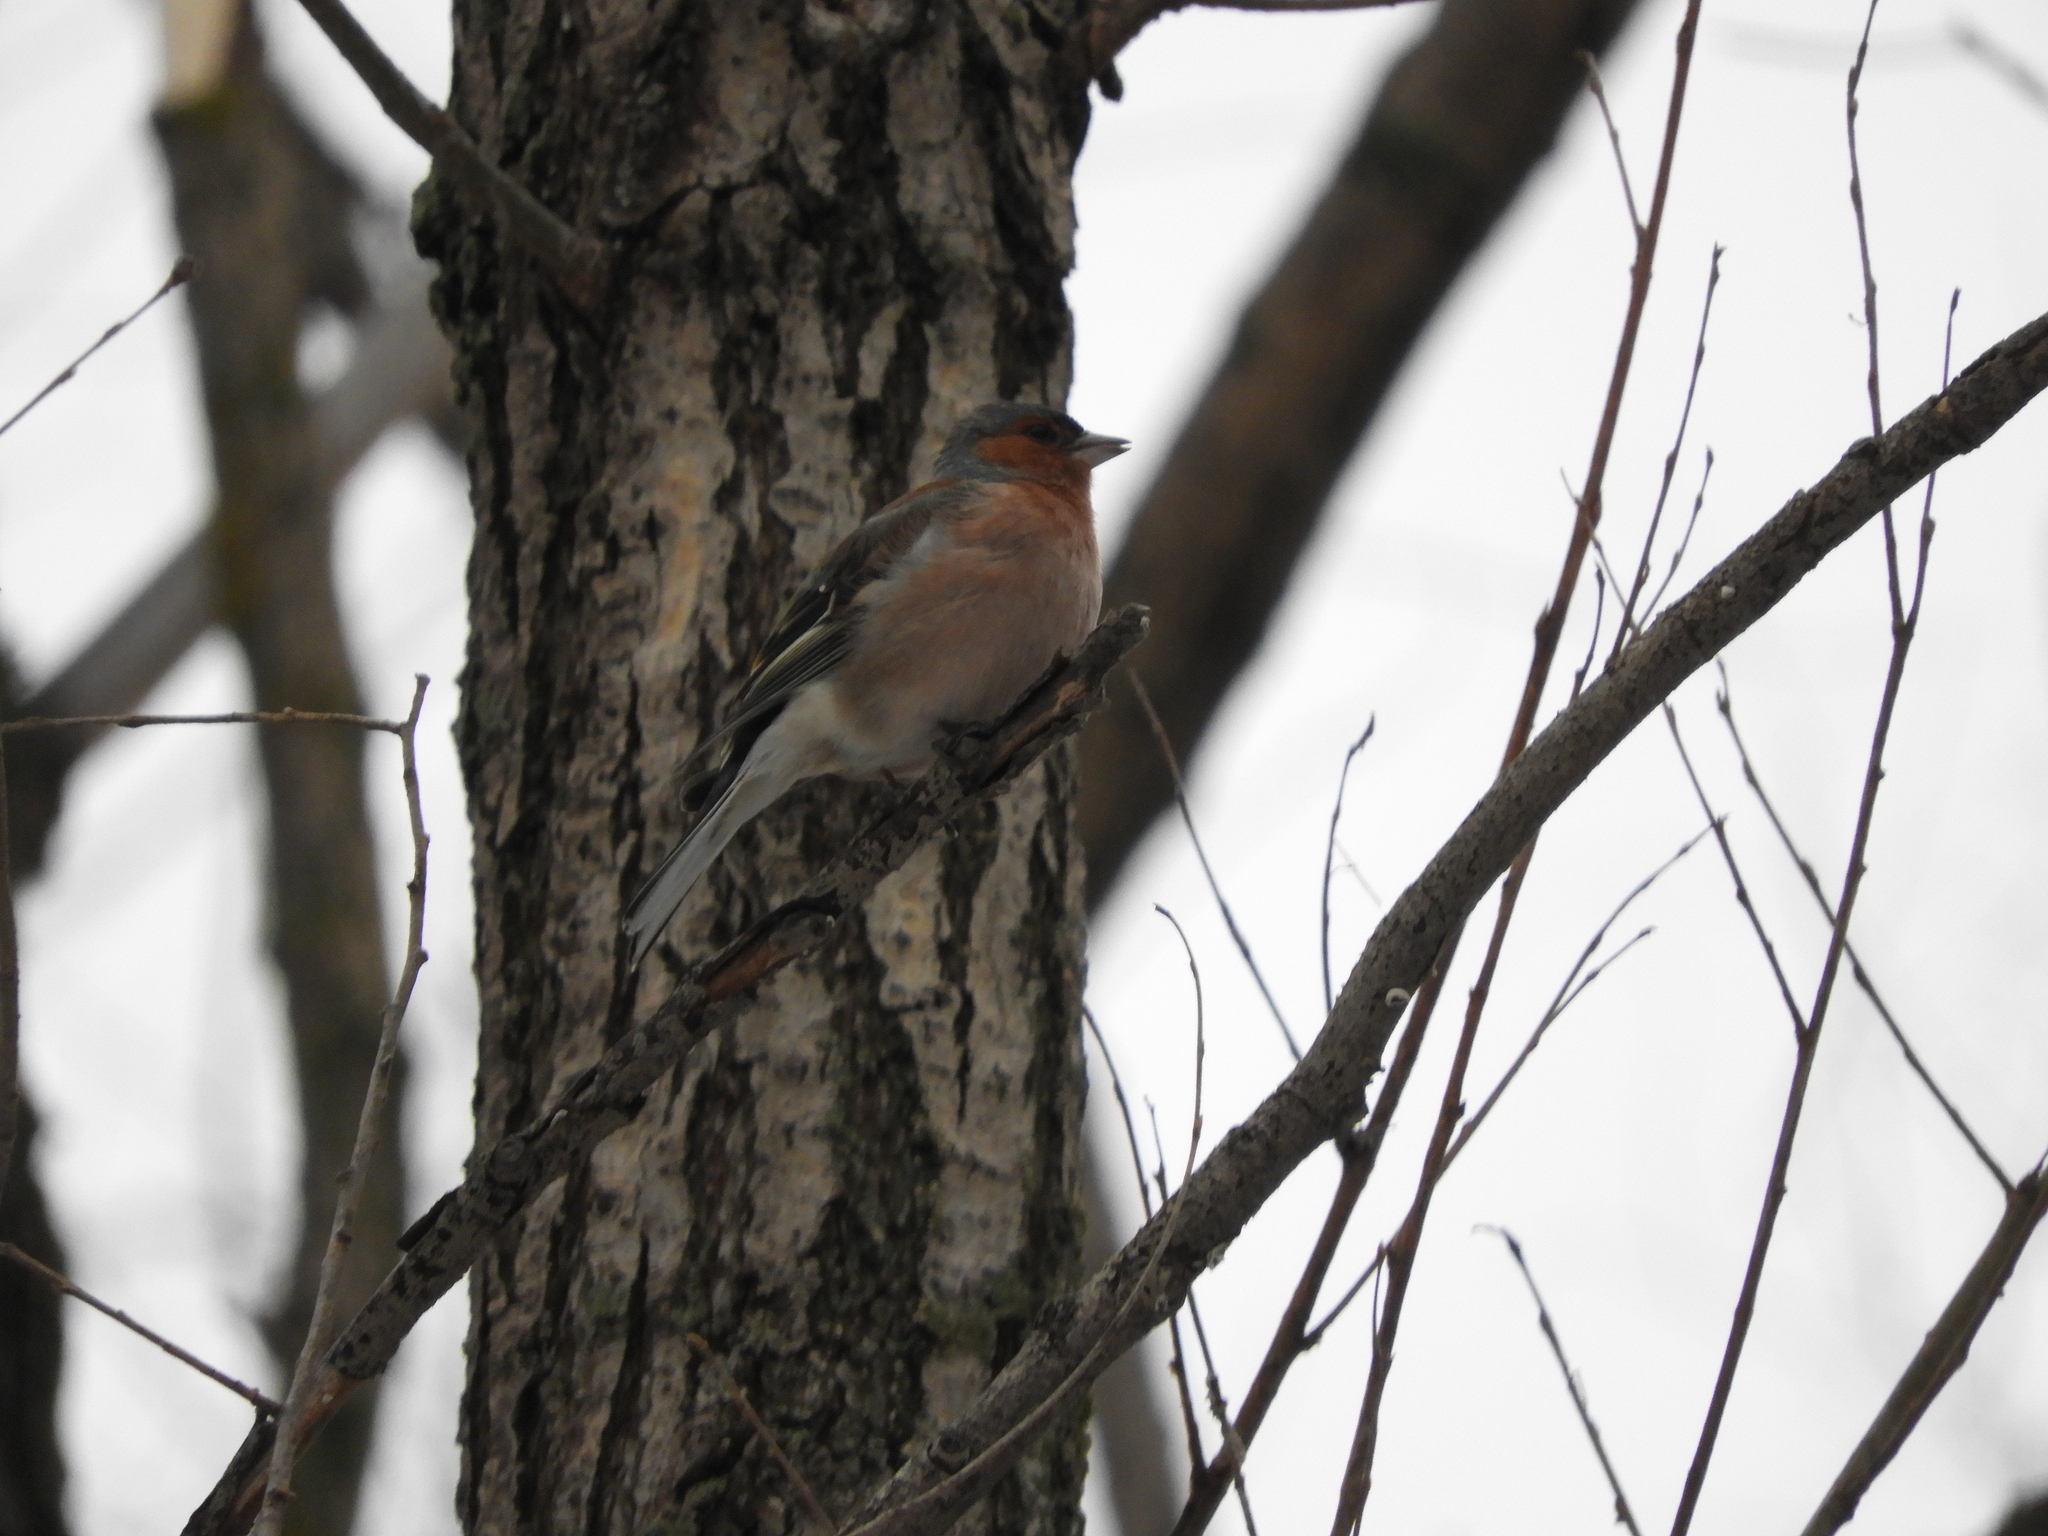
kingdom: Animalia
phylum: Chordata
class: Aves
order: Passeriformes
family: Fringillidae
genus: Fringilla
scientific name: Fringilla coelebs
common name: Common chaffinch
